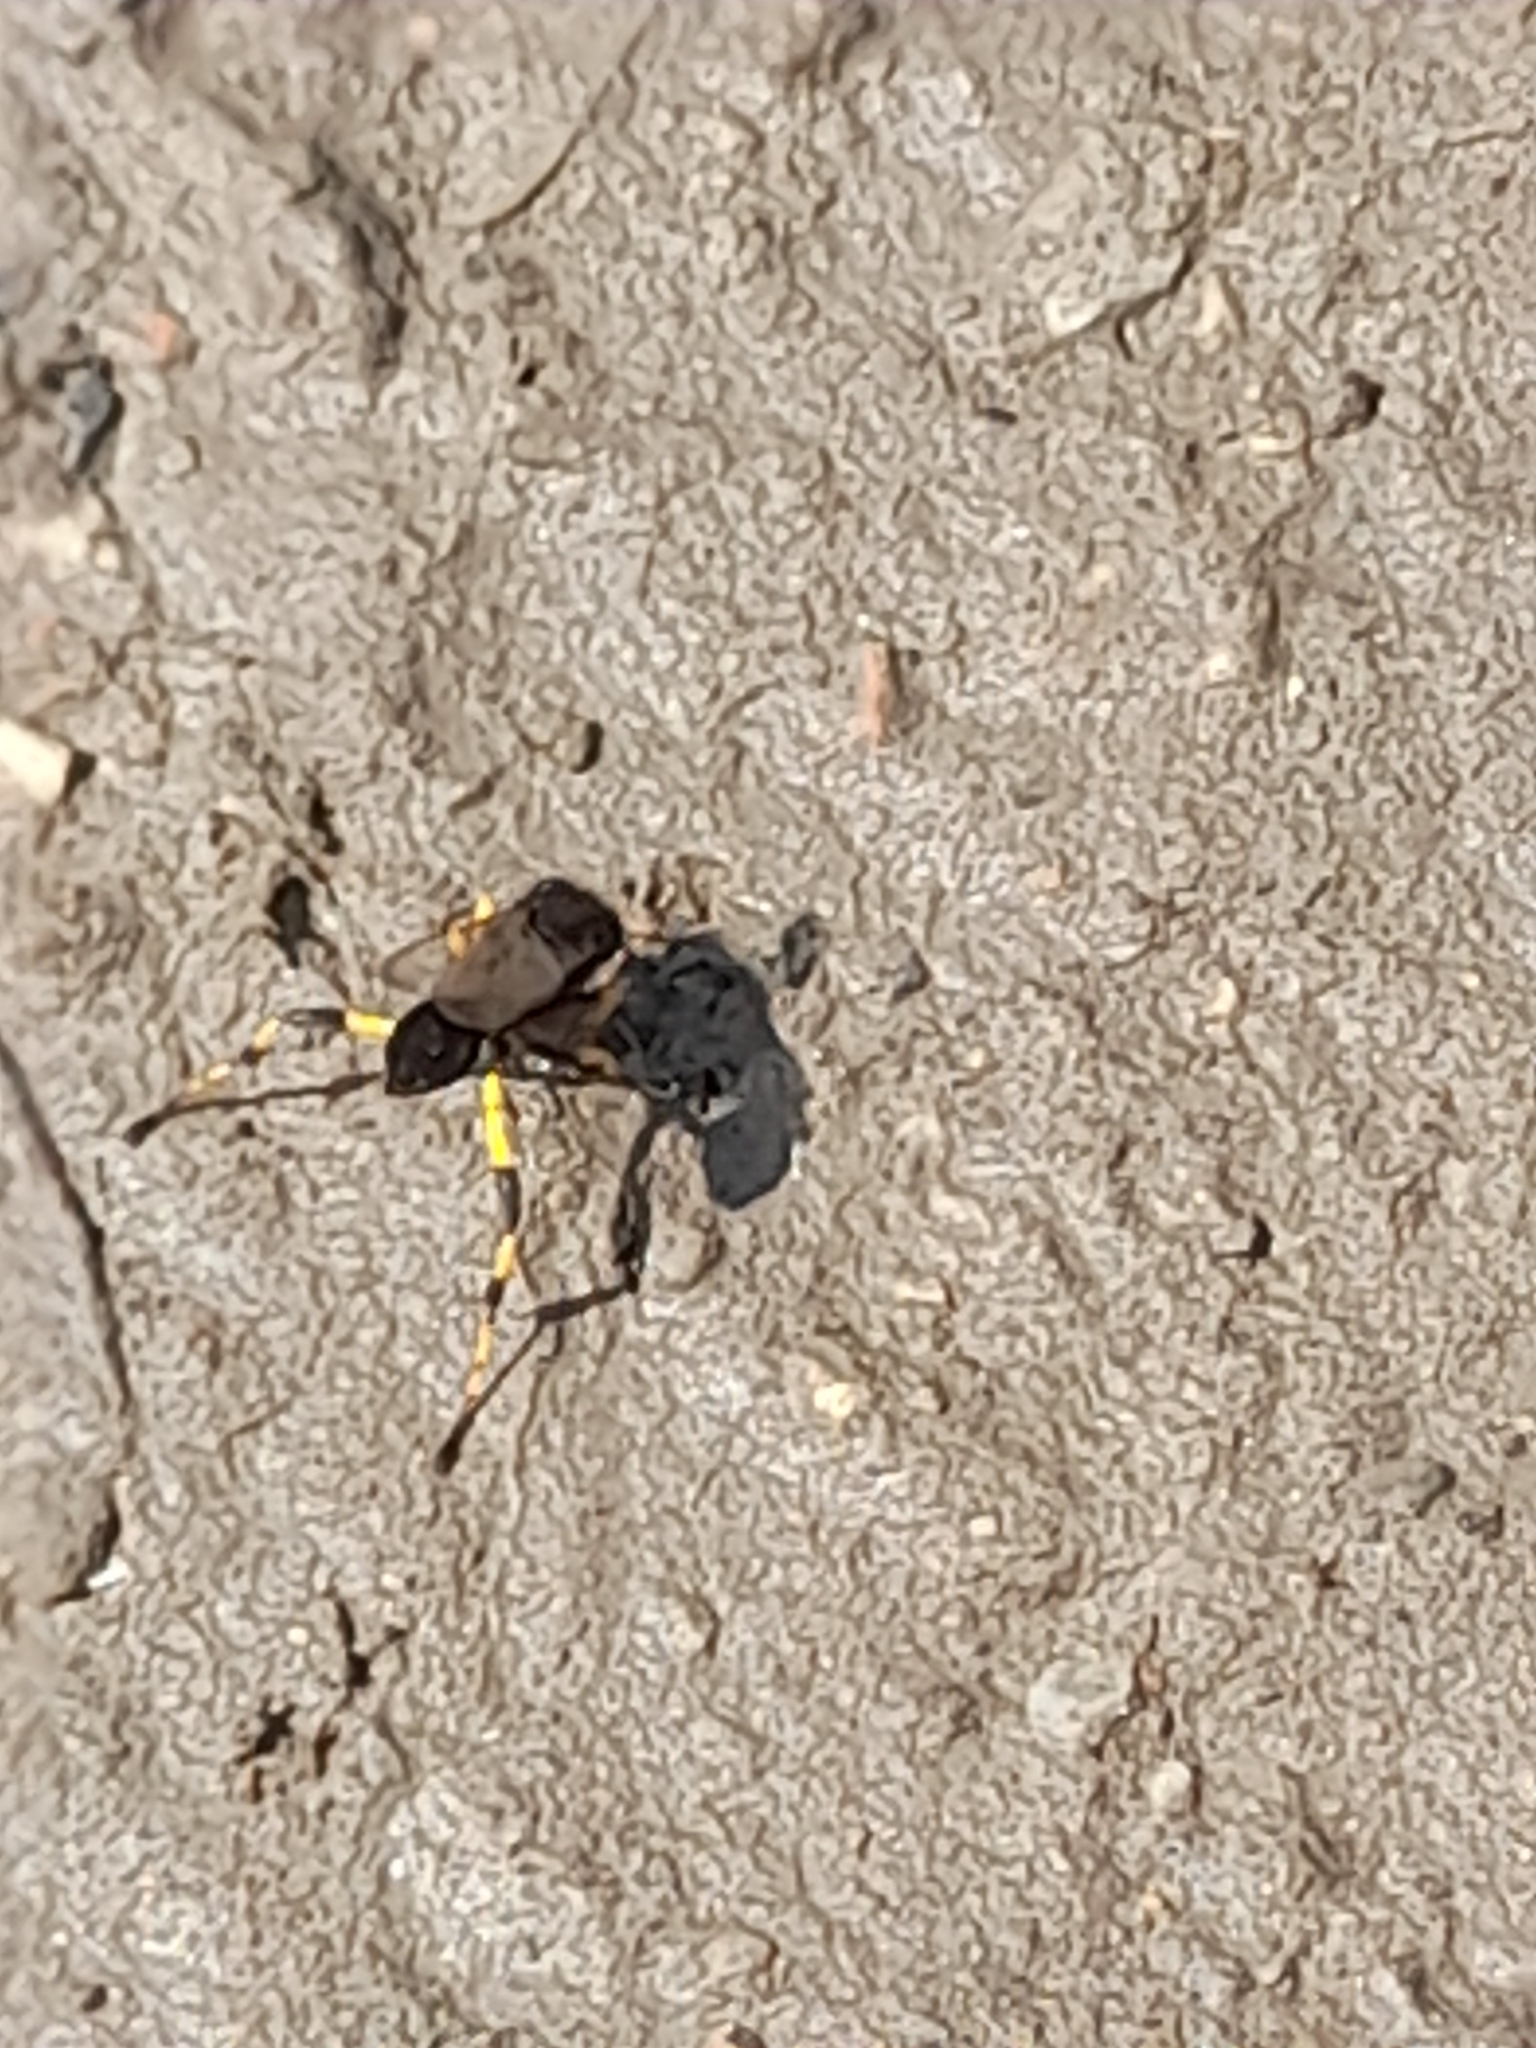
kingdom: Animalia
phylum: Arthropoda
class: Insecta
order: Hymenoptera
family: Sphecidae
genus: Sceliphron
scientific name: Sceliphron spirifex
